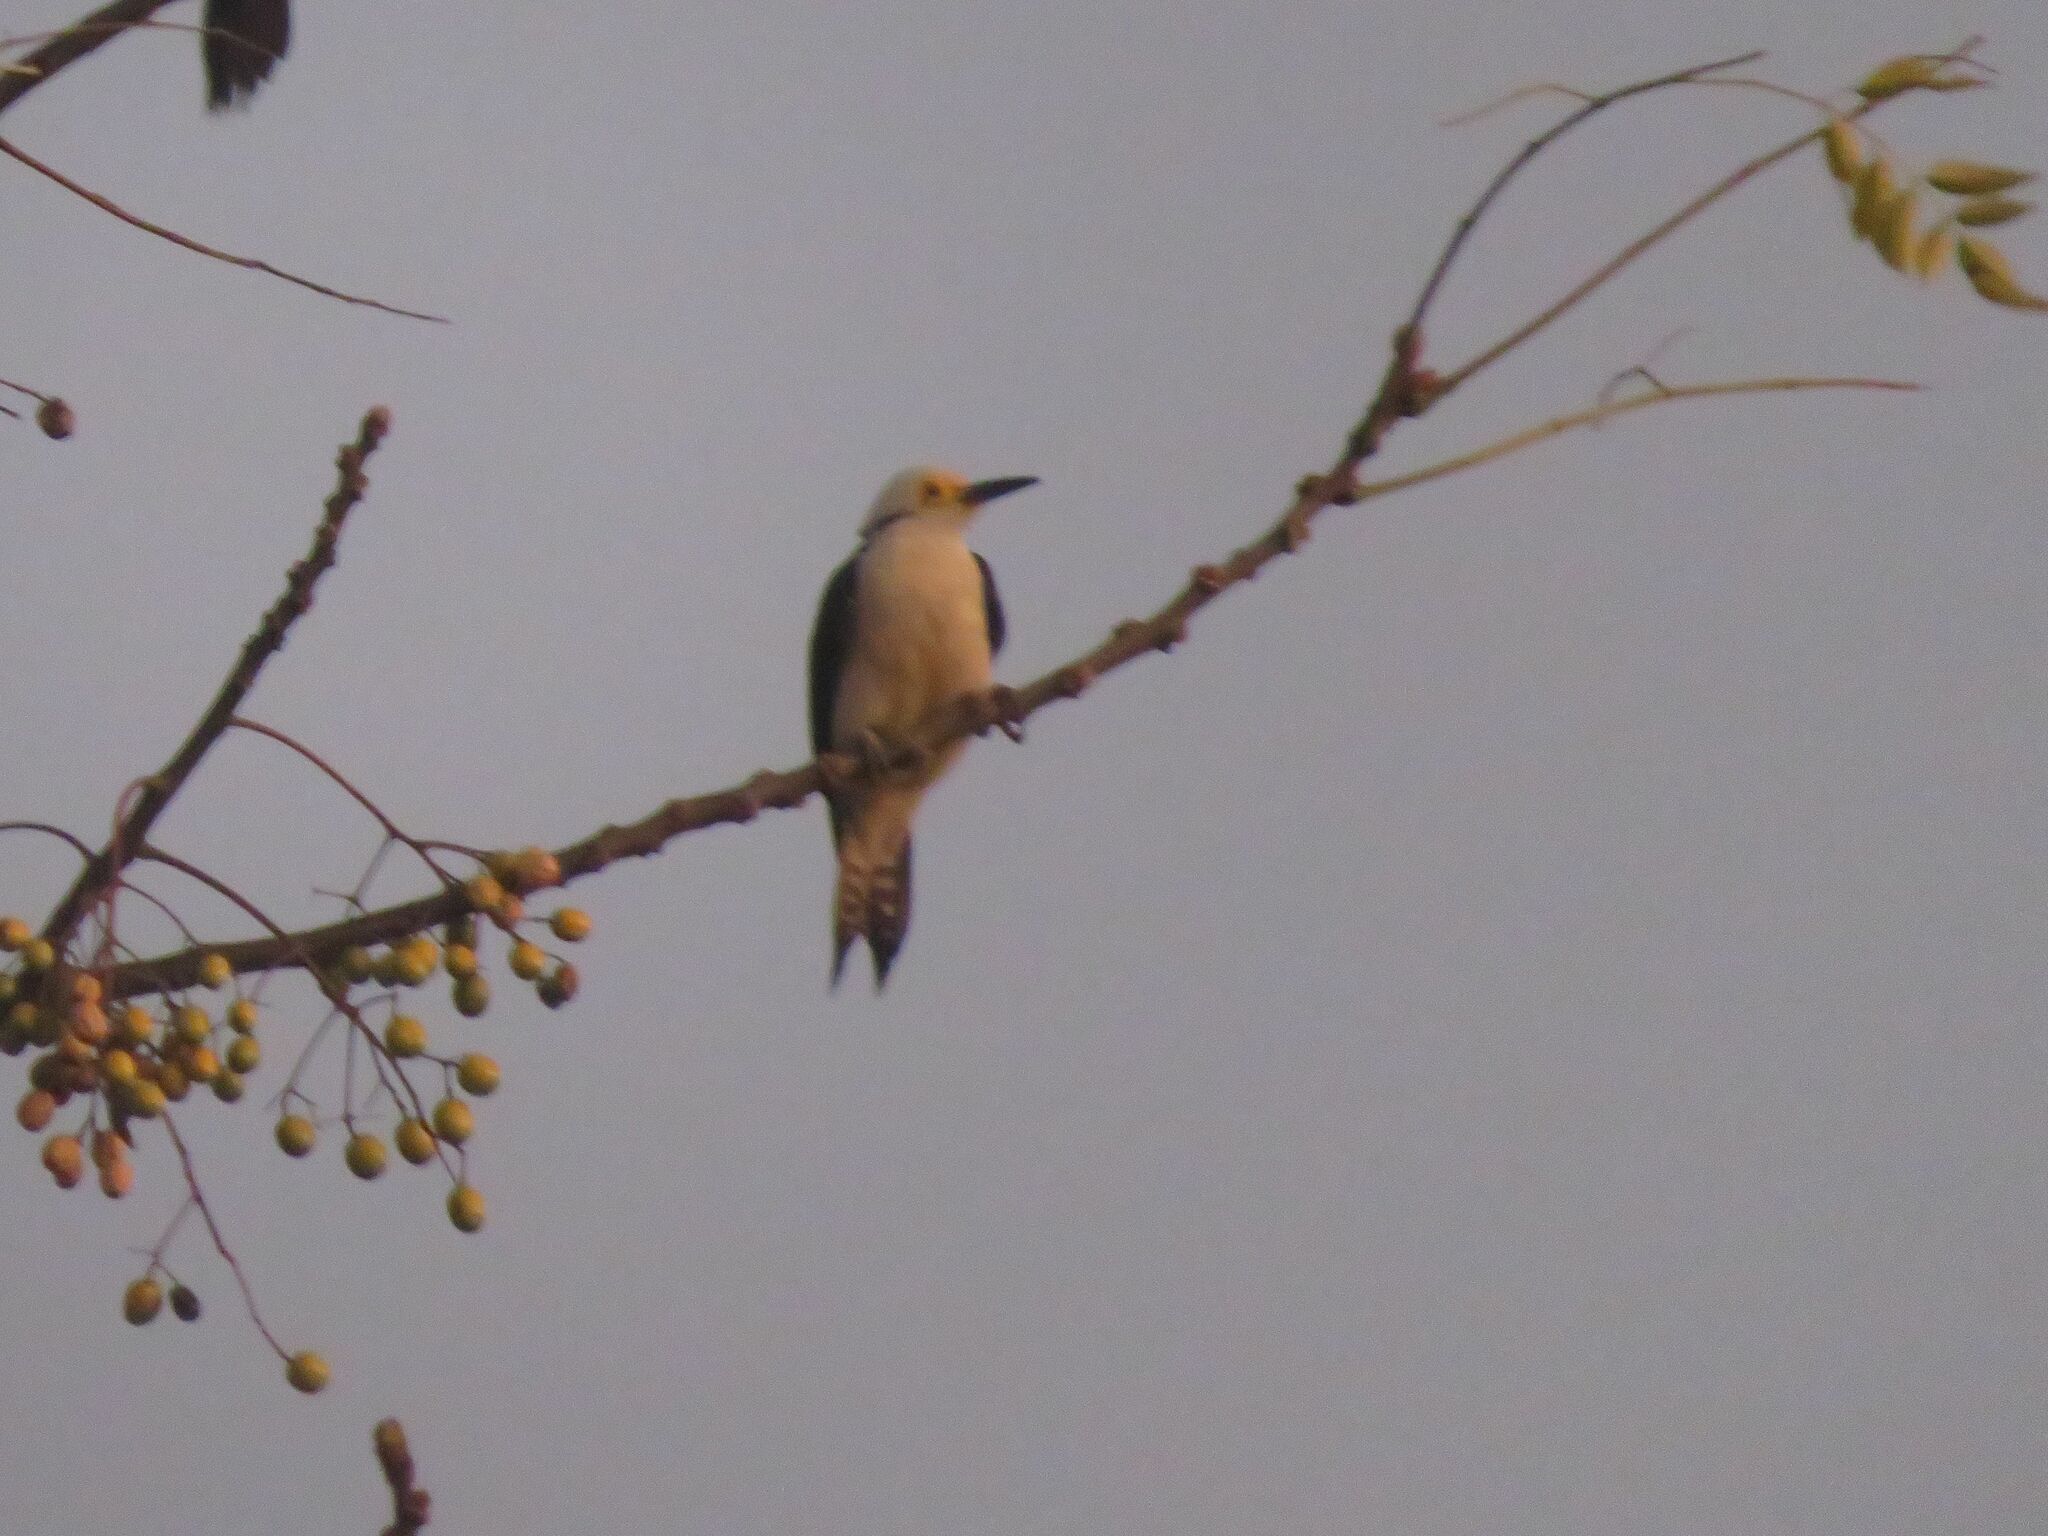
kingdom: Animalia
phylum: Chordata
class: Aves
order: Piciformes
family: Picidae
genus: Melanerpes
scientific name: Melanerpes candidus
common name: White woodpecker
